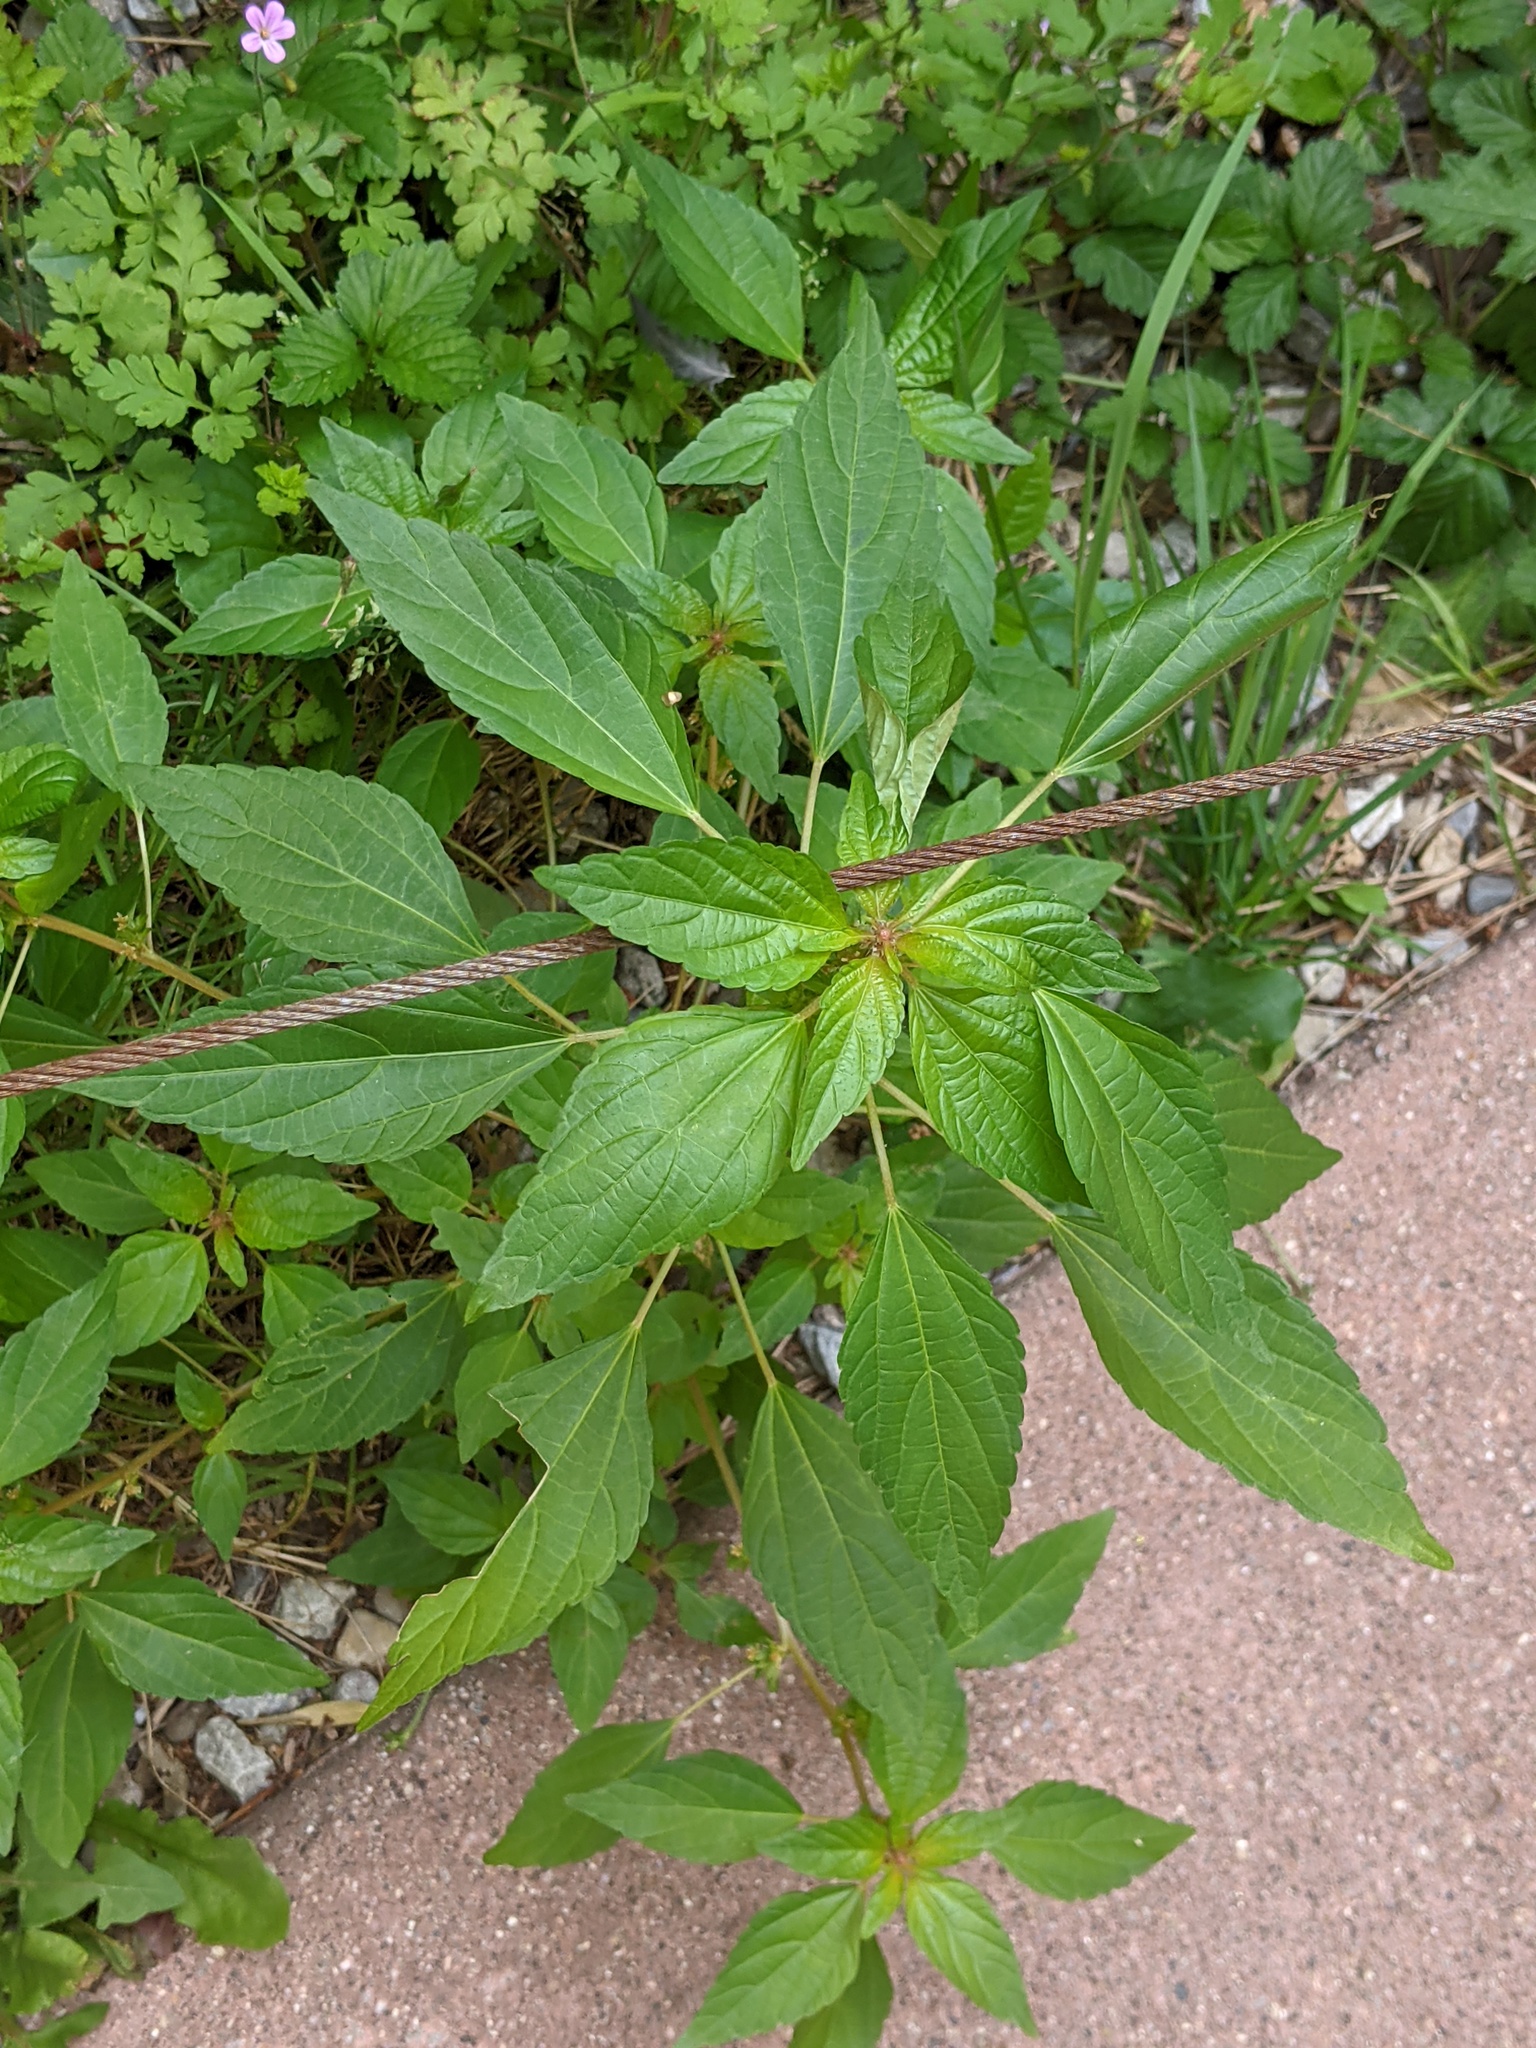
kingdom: Plantae
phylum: Tracheophyta
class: Magnoliopsida
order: Malpighiales
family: Euphorbiaceae
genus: Acalypha
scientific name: Acalypha rhomboidea
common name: Rhombic copperleaf
